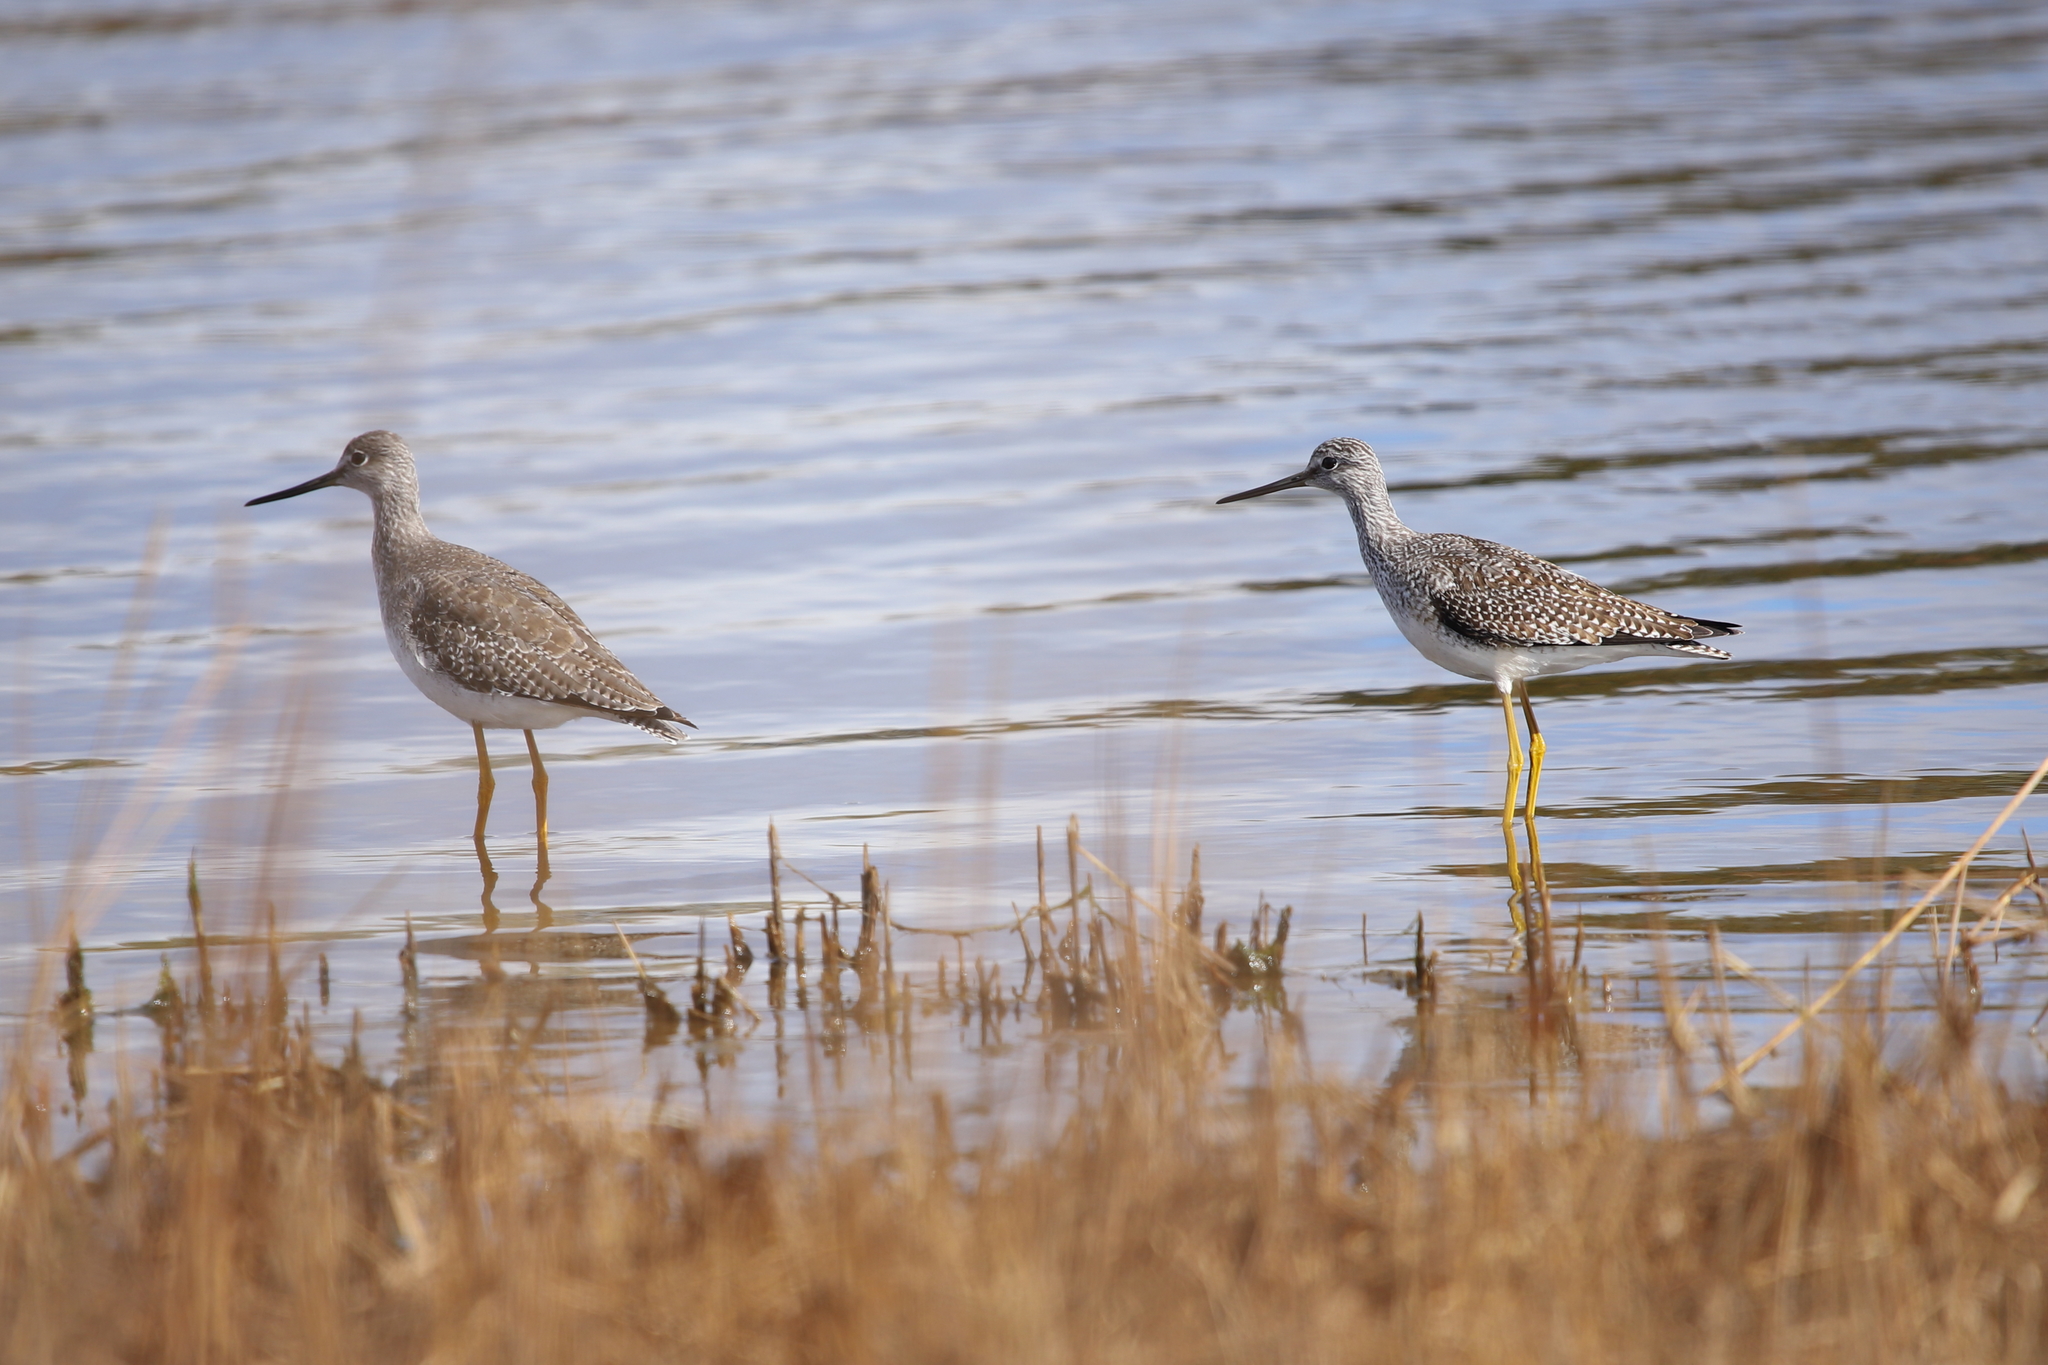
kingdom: Animalia
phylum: Chordata
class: Aves
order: Charadriiformes
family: Scolopacidae
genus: Tringa
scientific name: Tringa melanoleuca
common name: Greater yellowlegs
